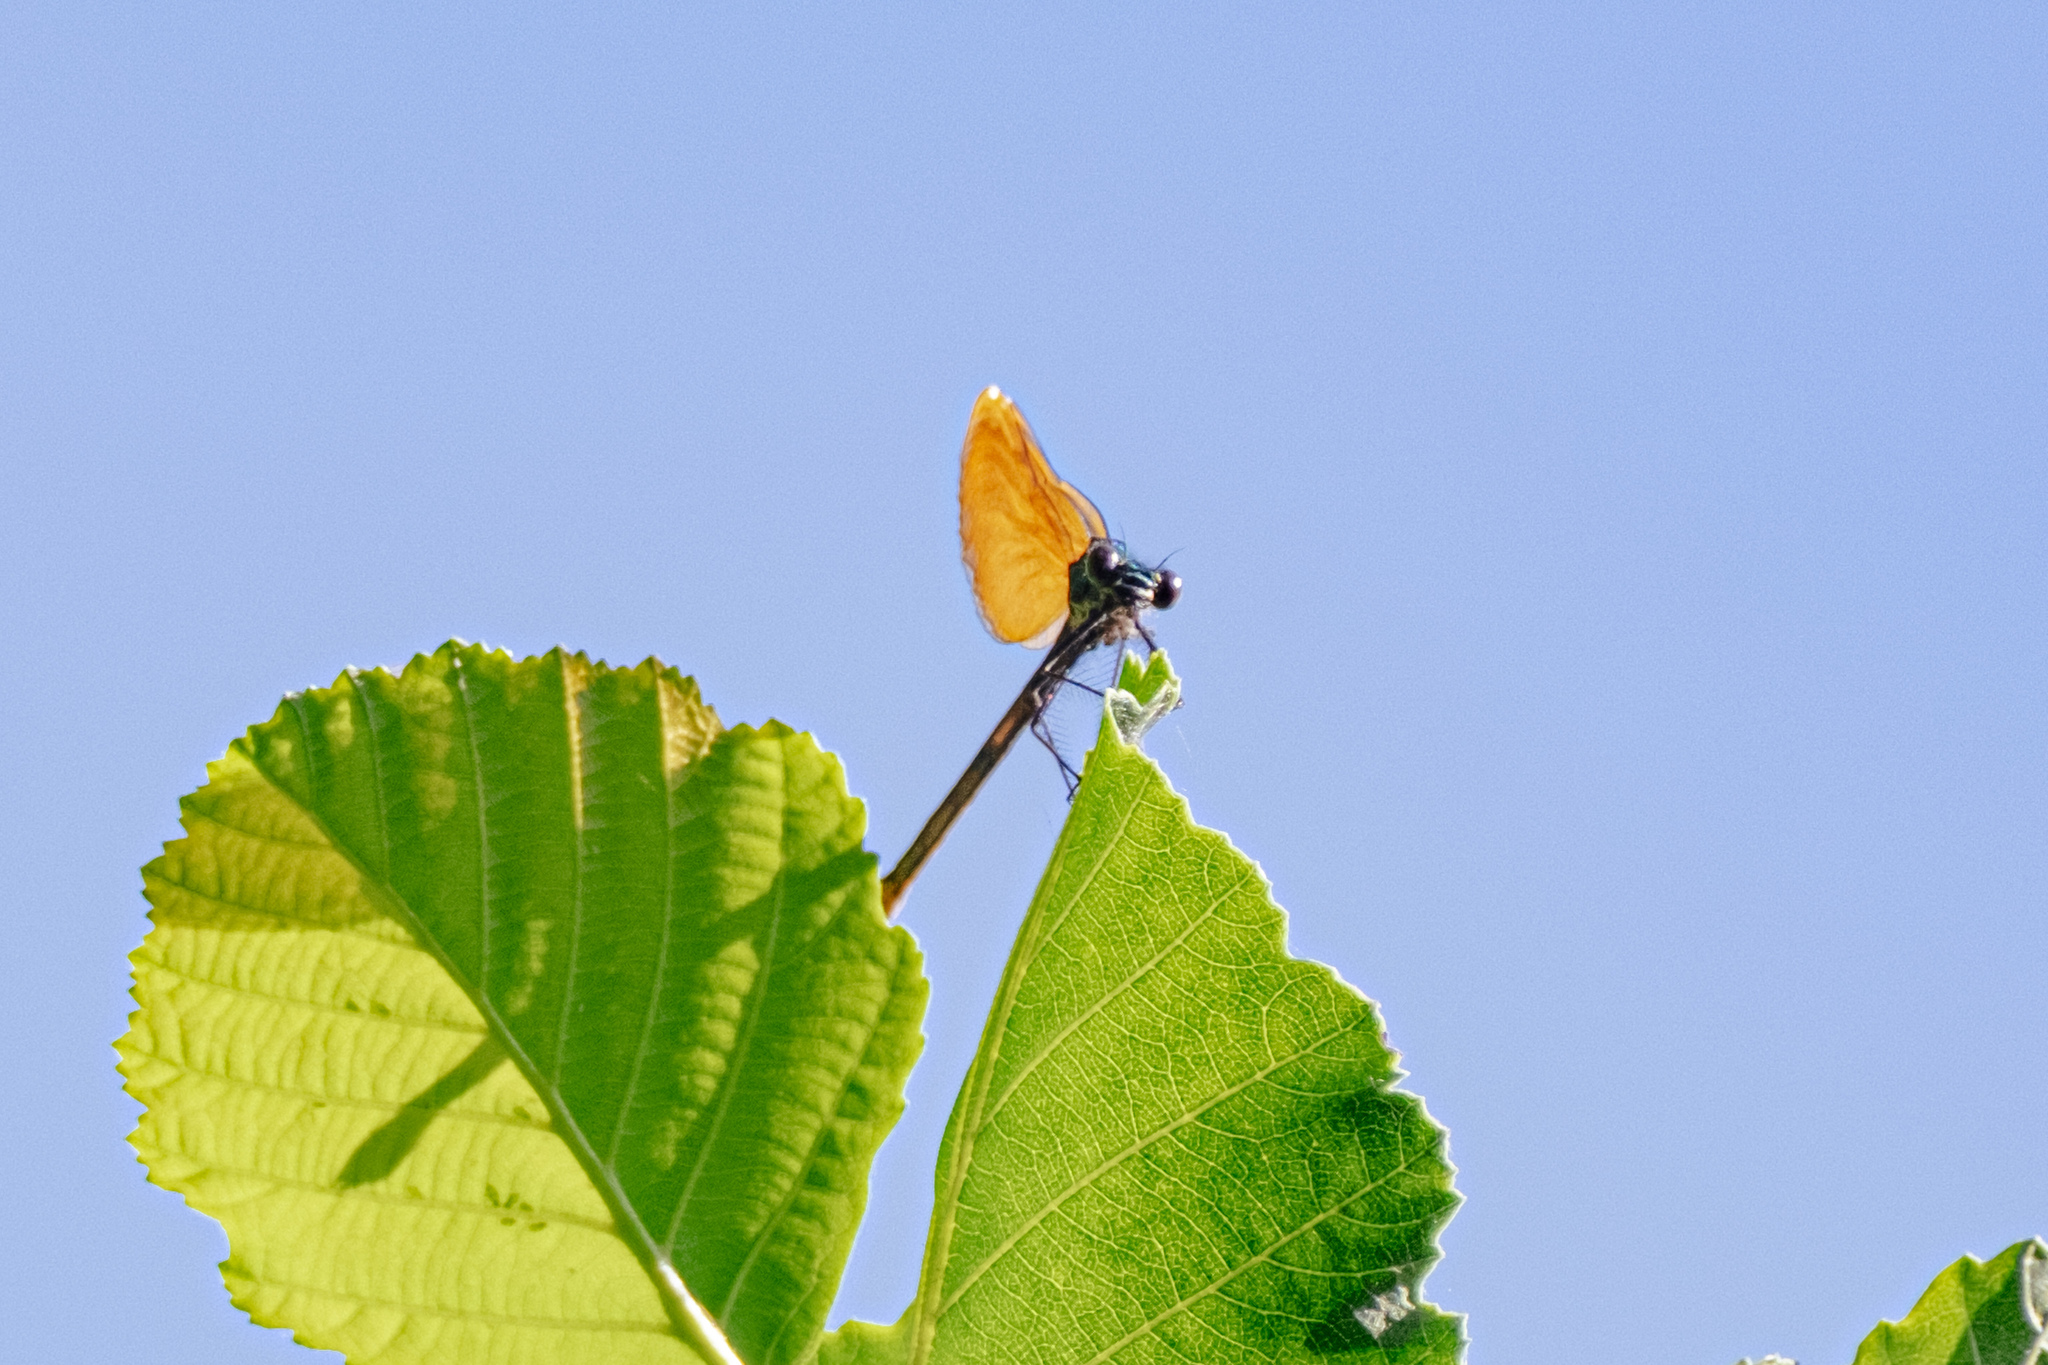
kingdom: Animalia
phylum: Arthropoda
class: Insecta
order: Odonata
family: Calopterygidae
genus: Calopteryx
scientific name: Calopteryx virgo
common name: Beautiful demoiselle
